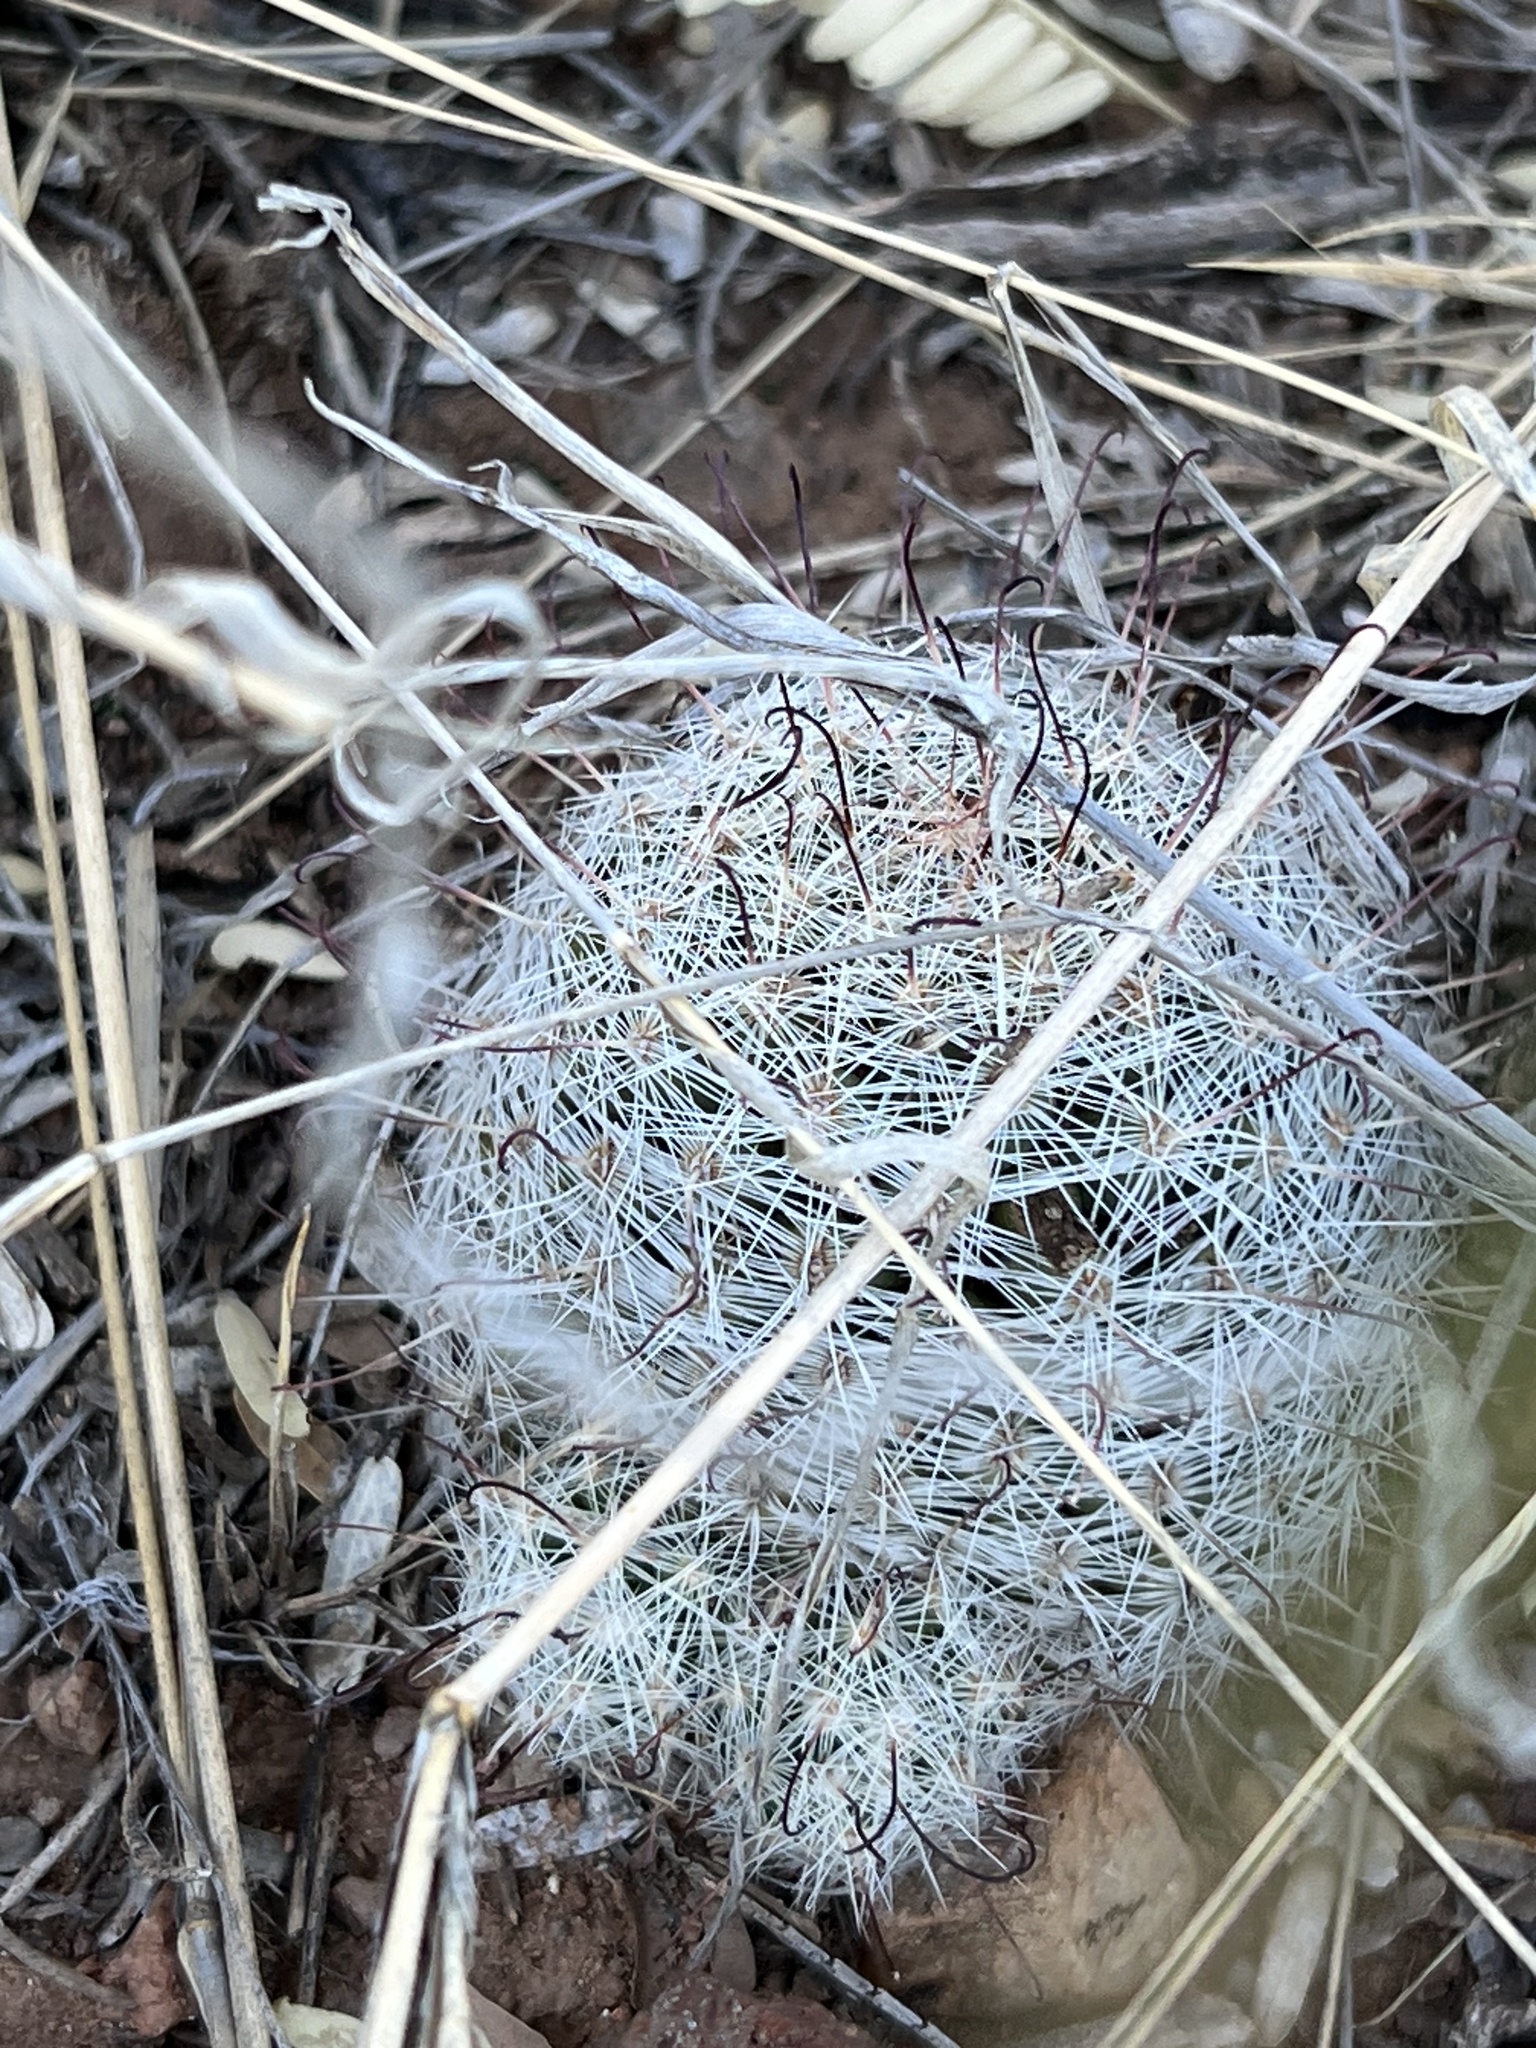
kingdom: Plantae
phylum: Tracheophyta
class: Magnoliopsida
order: Caryophyllales
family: Cactaceae
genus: Cochemiea
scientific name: Cochemiea grahamii
